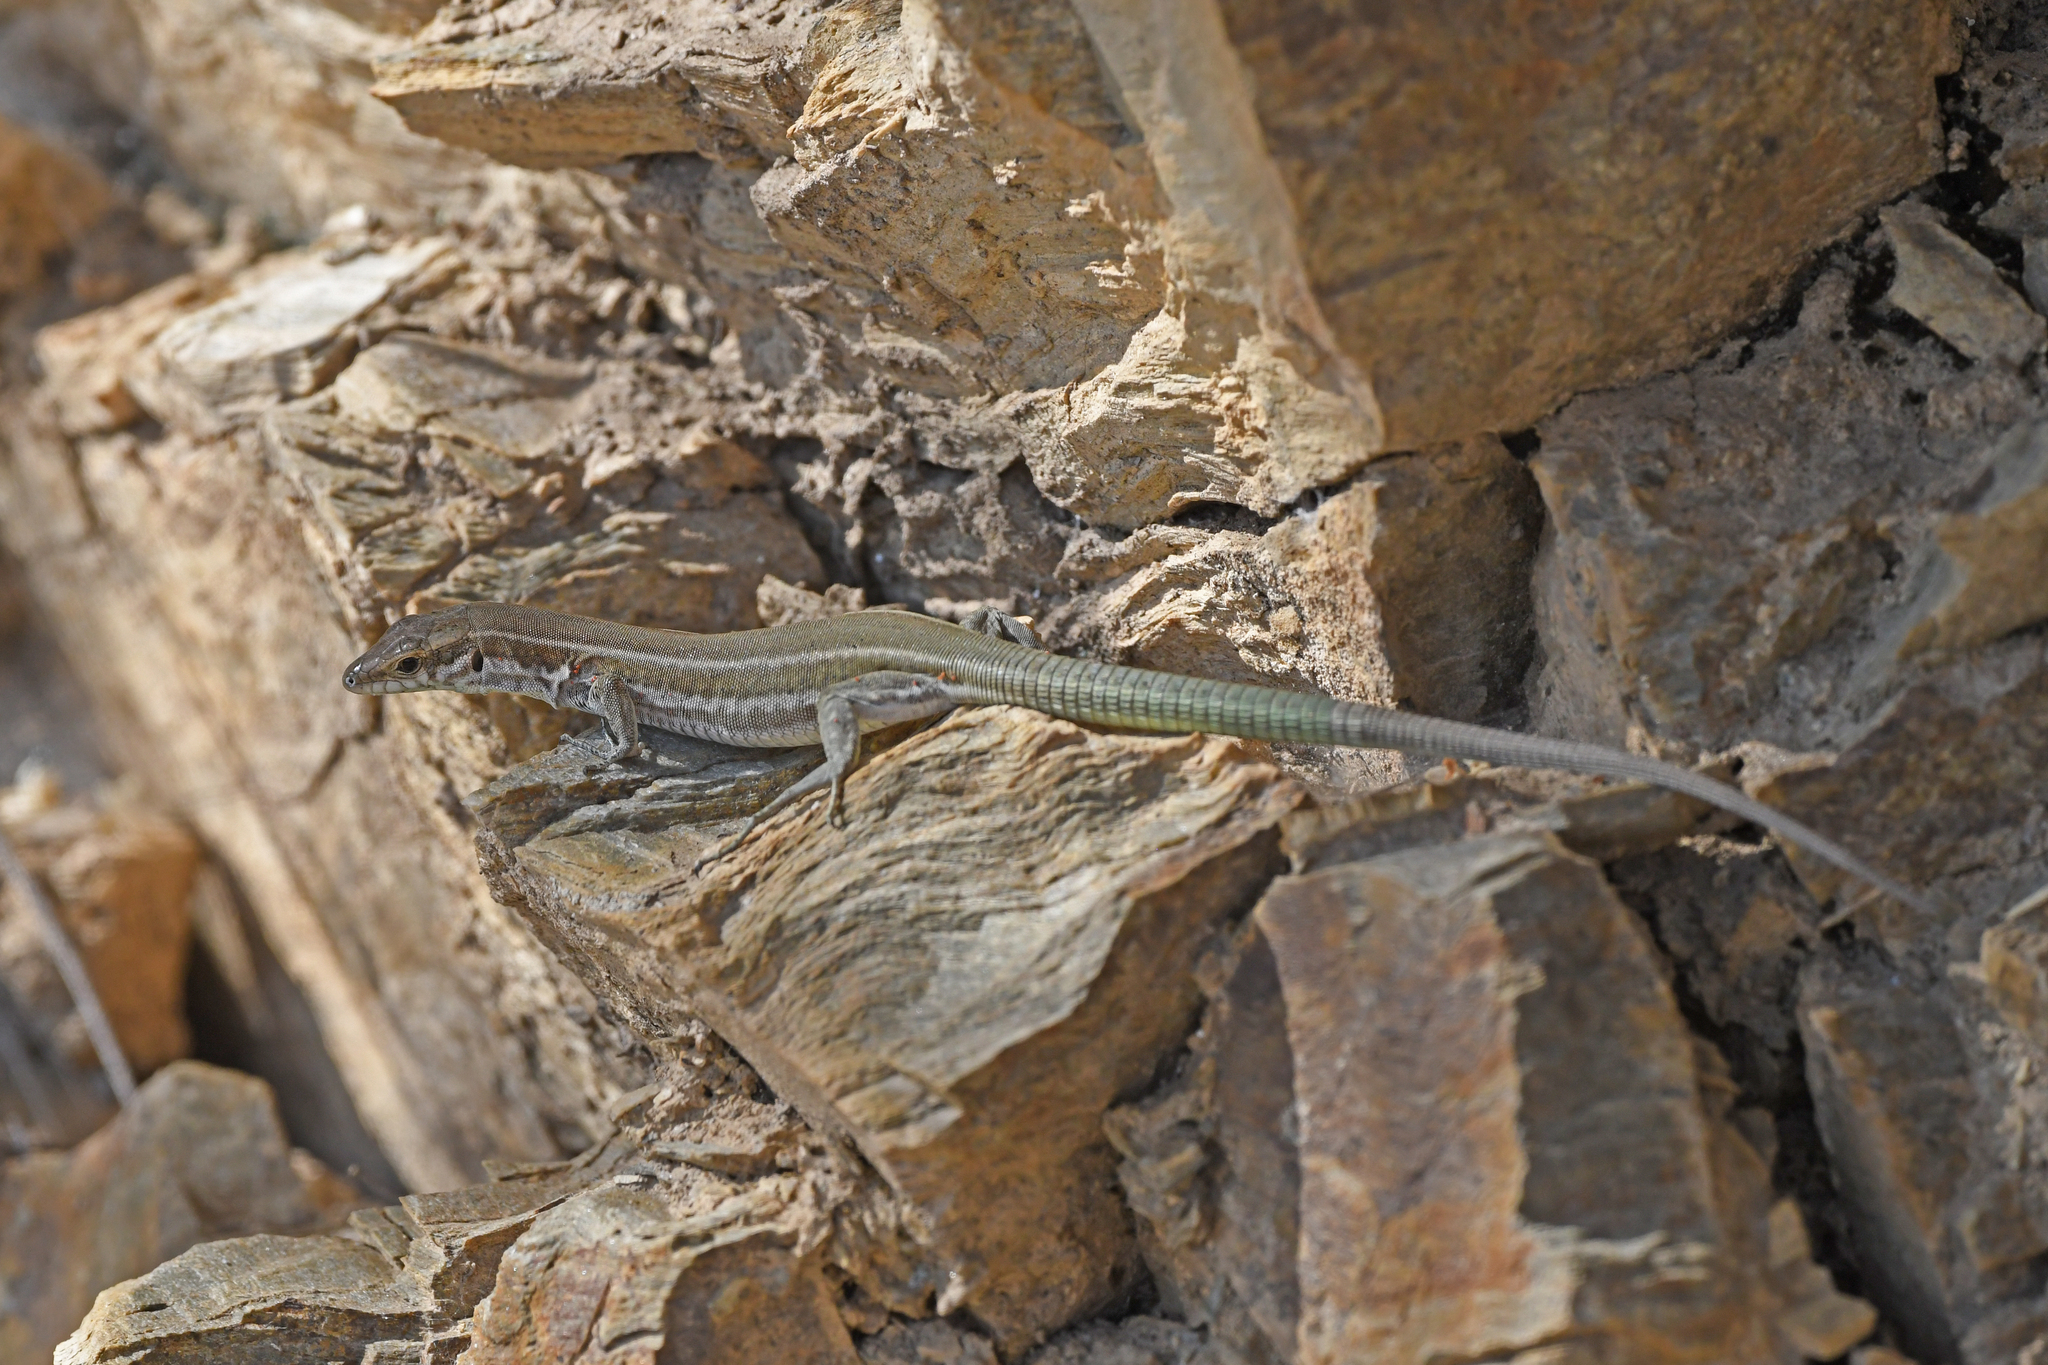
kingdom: Animalia
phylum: Chordata
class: Squamata
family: Lacertidae
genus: Podarcis
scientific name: Podarcis tiliguerta
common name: Tyrrhenian wall lizard
